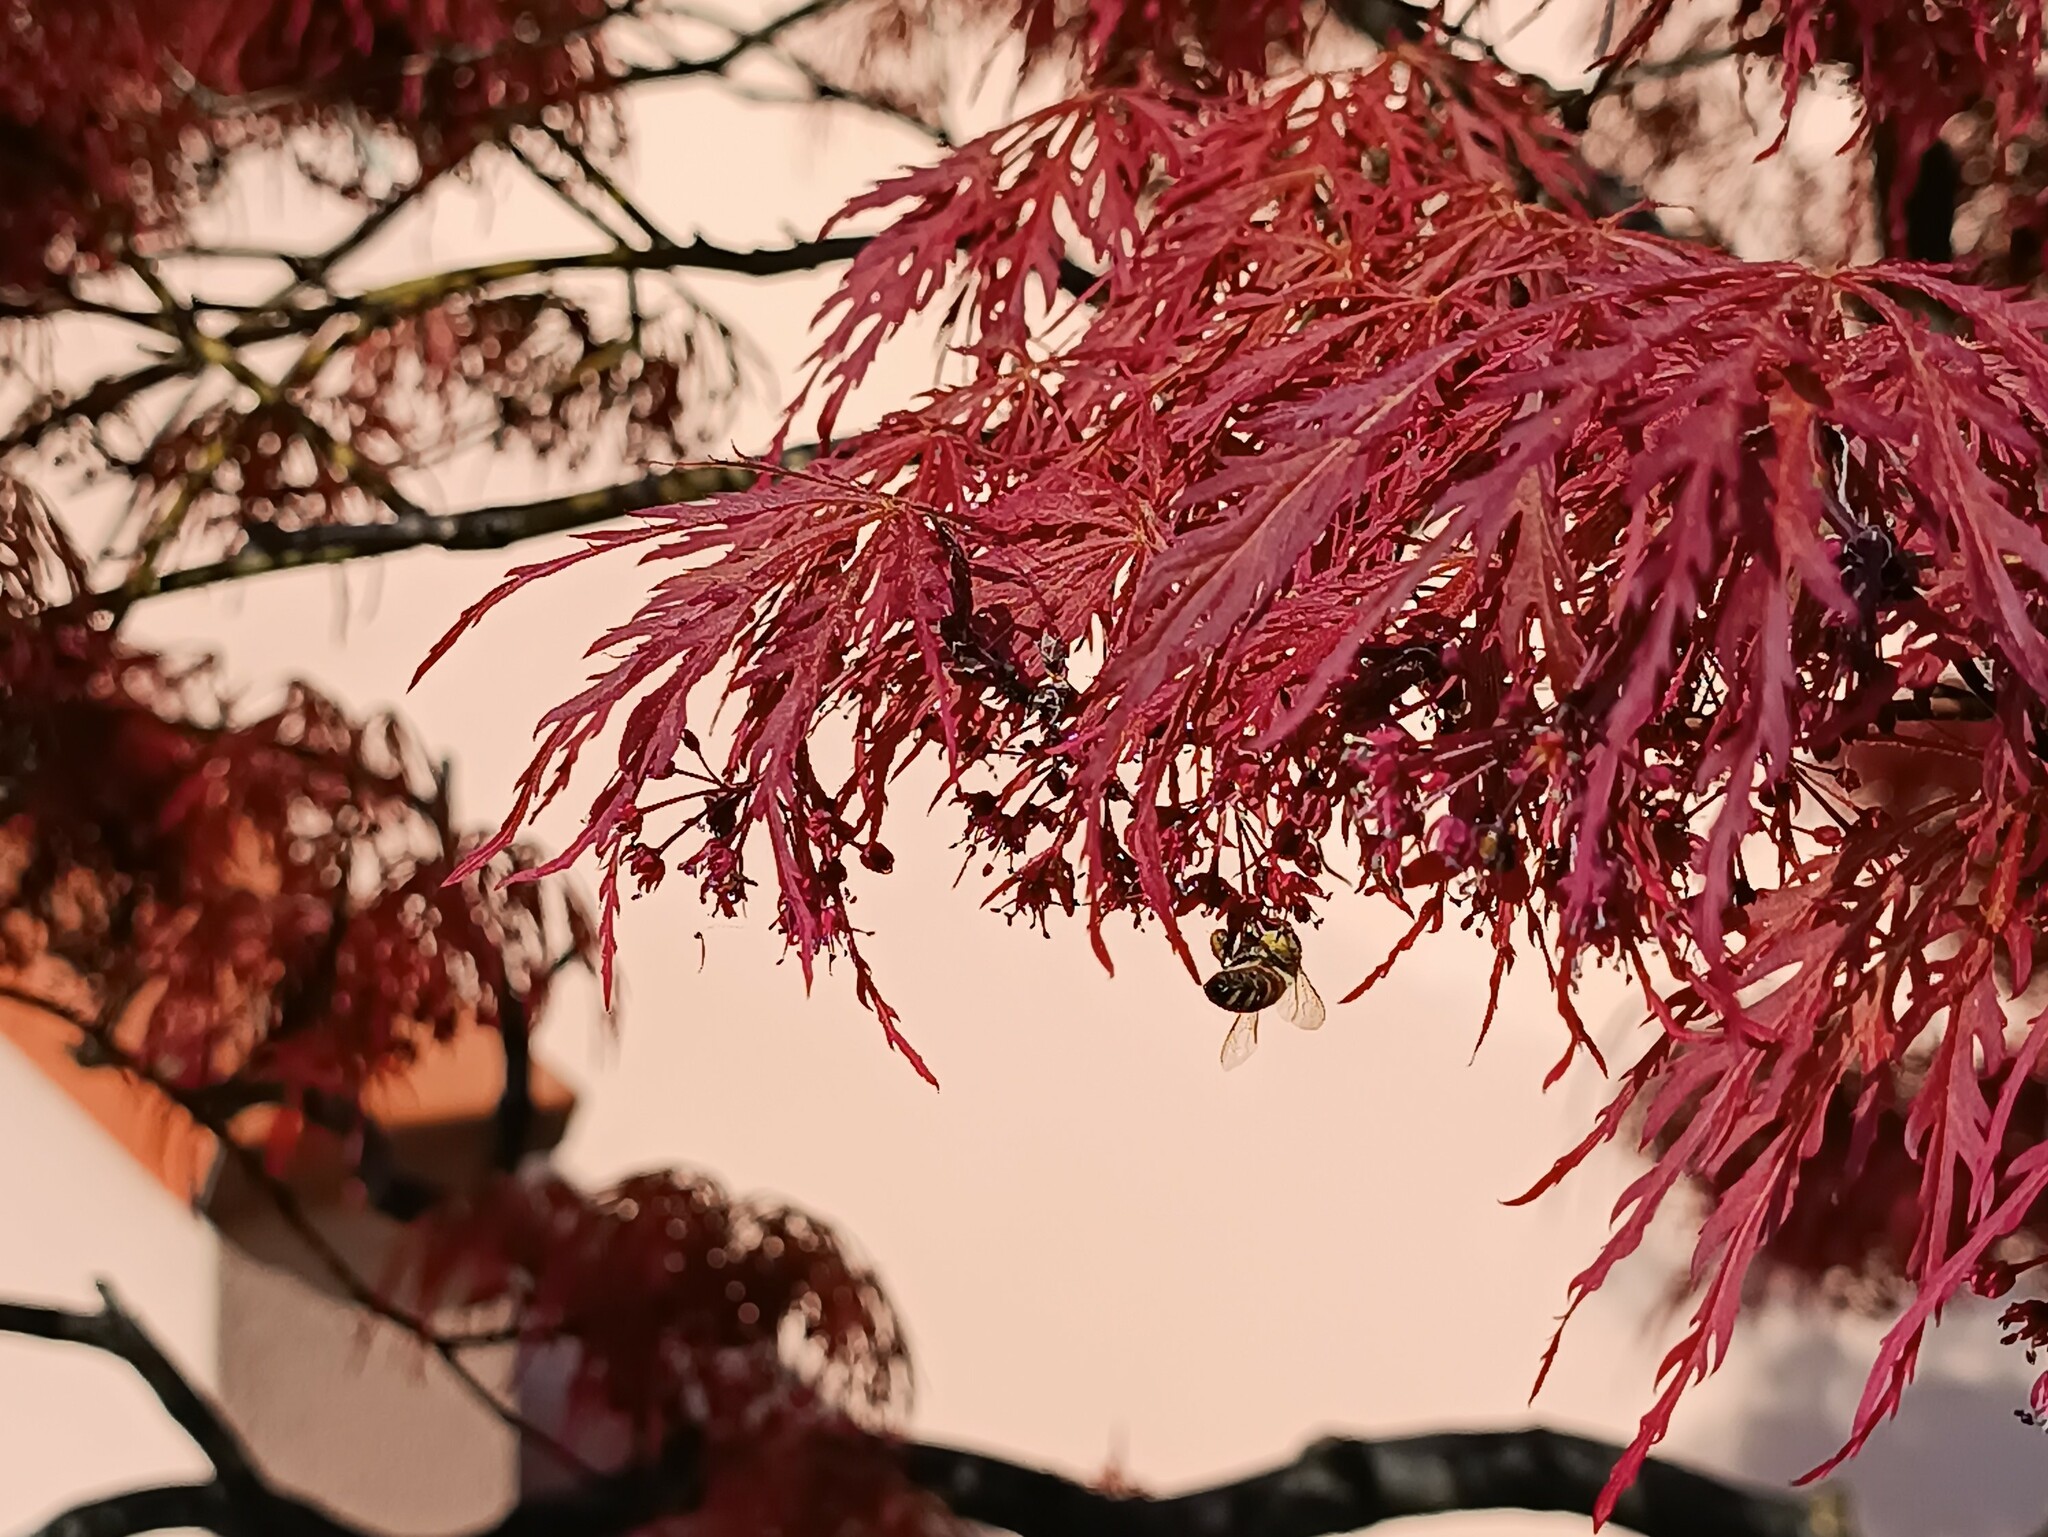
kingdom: Animalia
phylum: Arthropoda
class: Insecta
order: Hymenoptera
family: Apidae
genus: Apis
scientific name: Apis mellifera
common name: Honey bee
